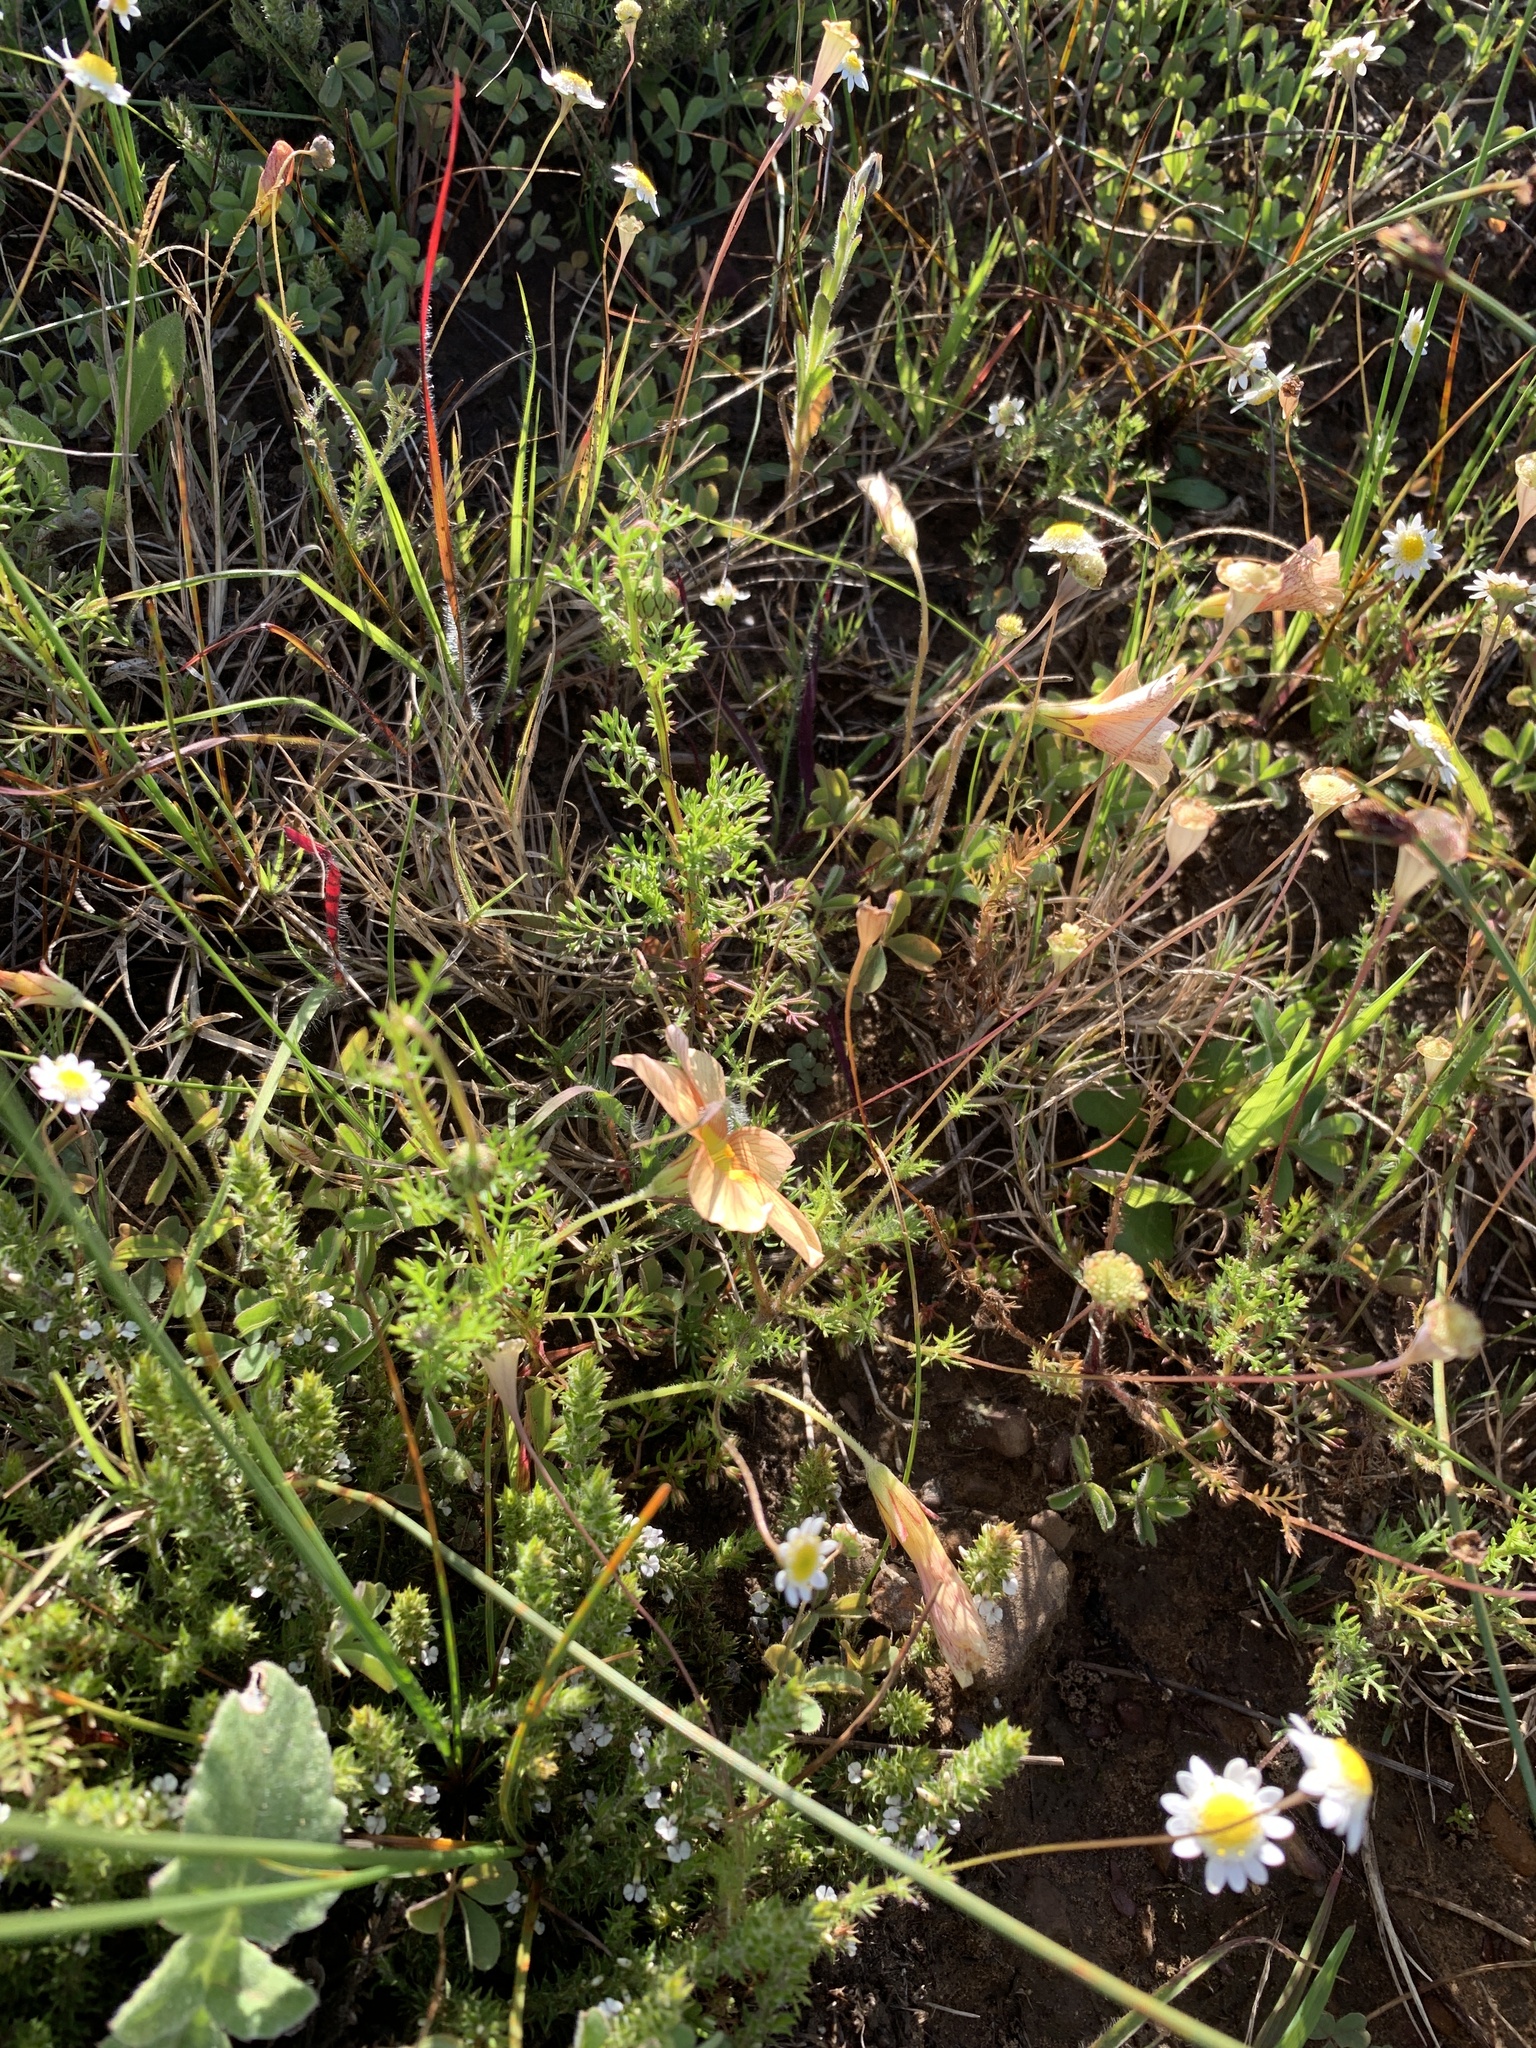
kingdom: Plantae
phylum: Tracheophyta
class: Magnoliopsida
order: Oxalidales
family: Oxalidaceae
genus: Oxalis
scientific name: Oxalis obtusa
